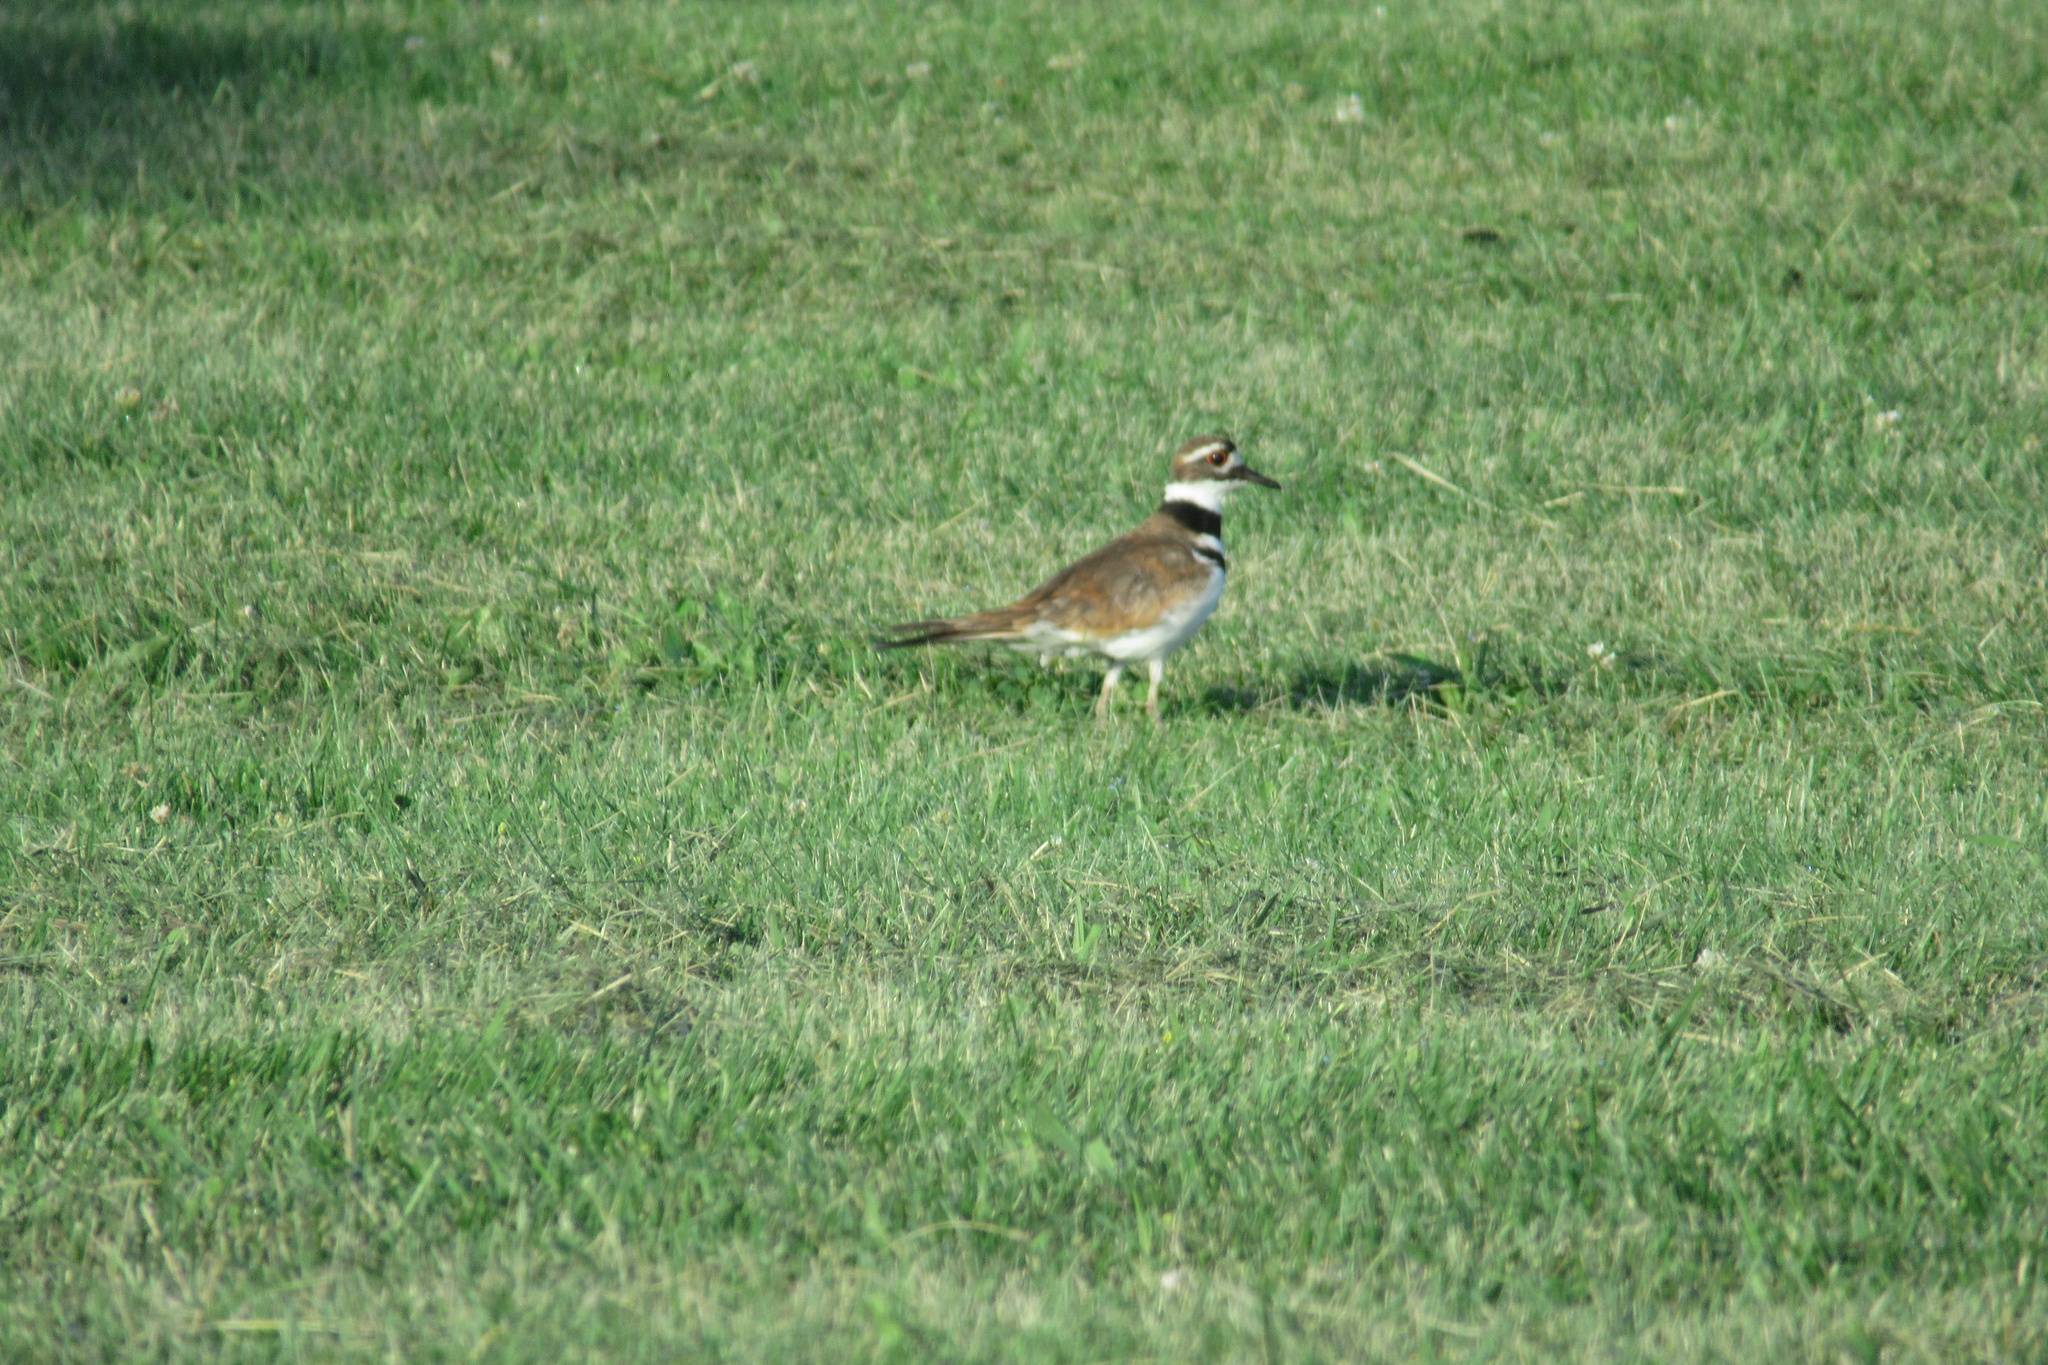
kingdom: Animalia
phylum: Chordata
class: Aves
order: Charadriiformes
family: Charadriidae
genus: Charadrius
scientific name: Charadrius vociferus
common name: Killdeer
